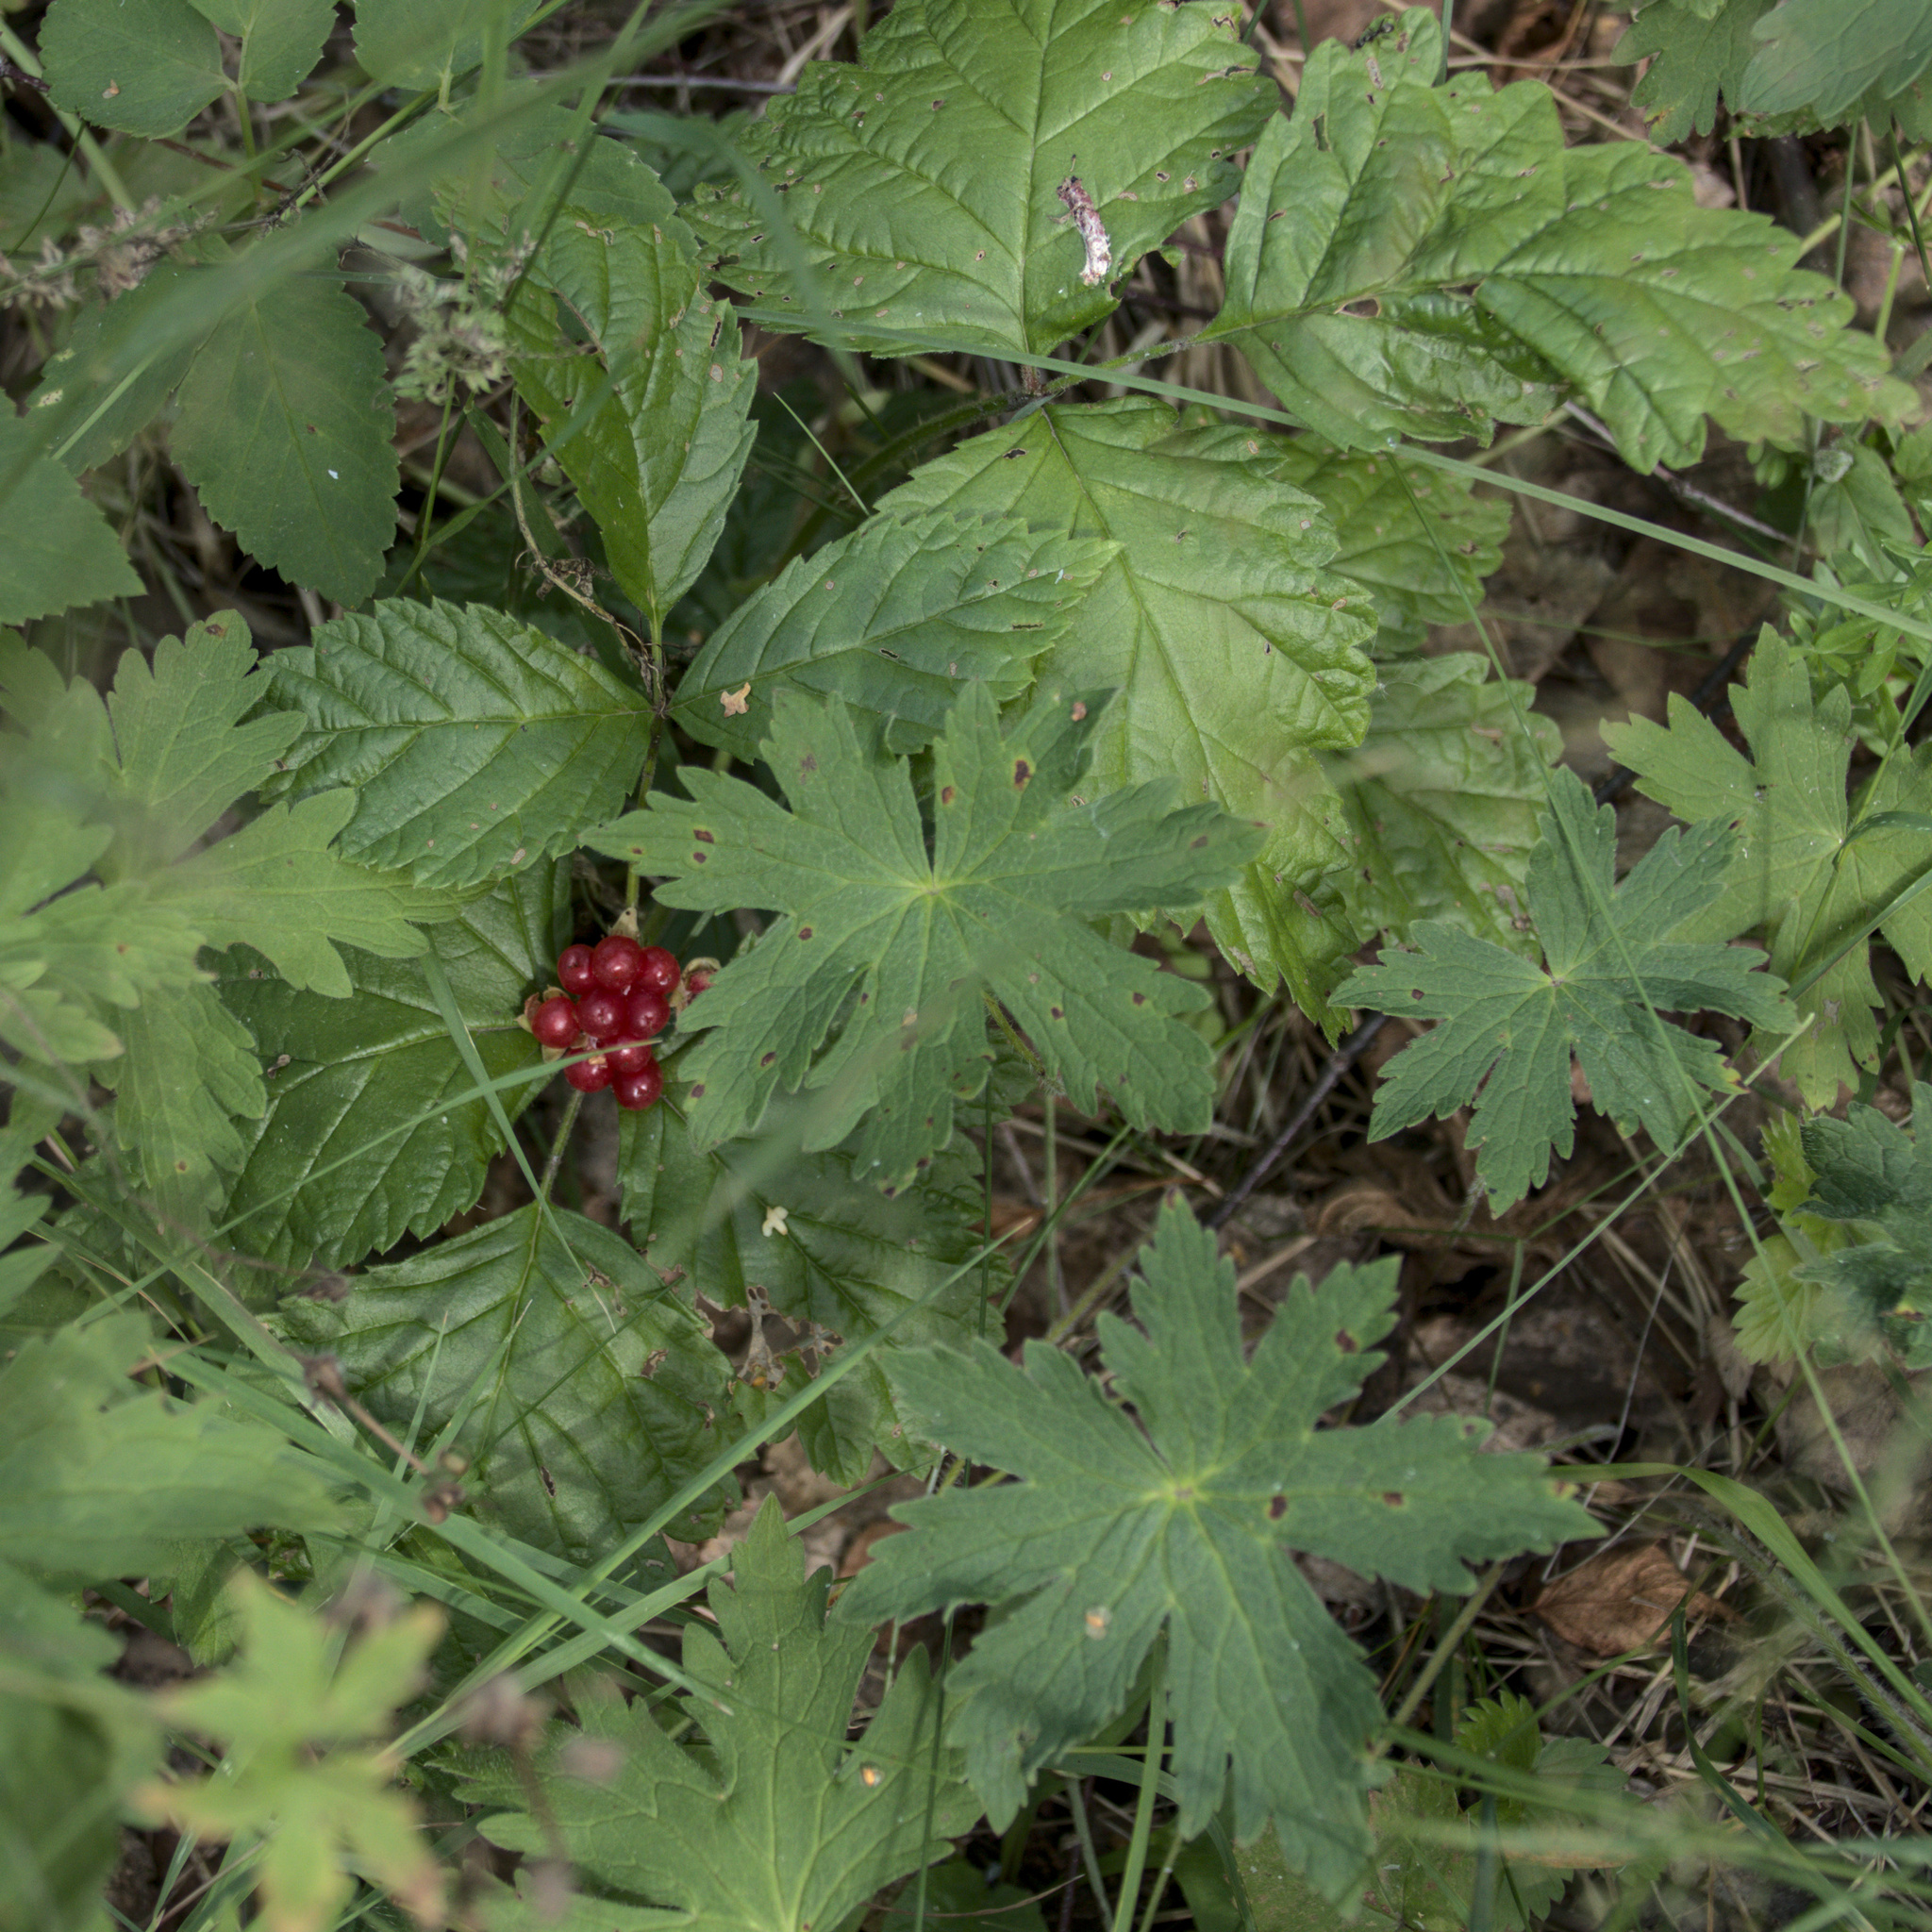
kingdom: Plantae
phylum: Tracheophyta
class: Magnoliopsida
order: Rosales
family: Rosaceae
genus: Rubus
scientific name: Rubus saxatilis
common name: Stone bramble
